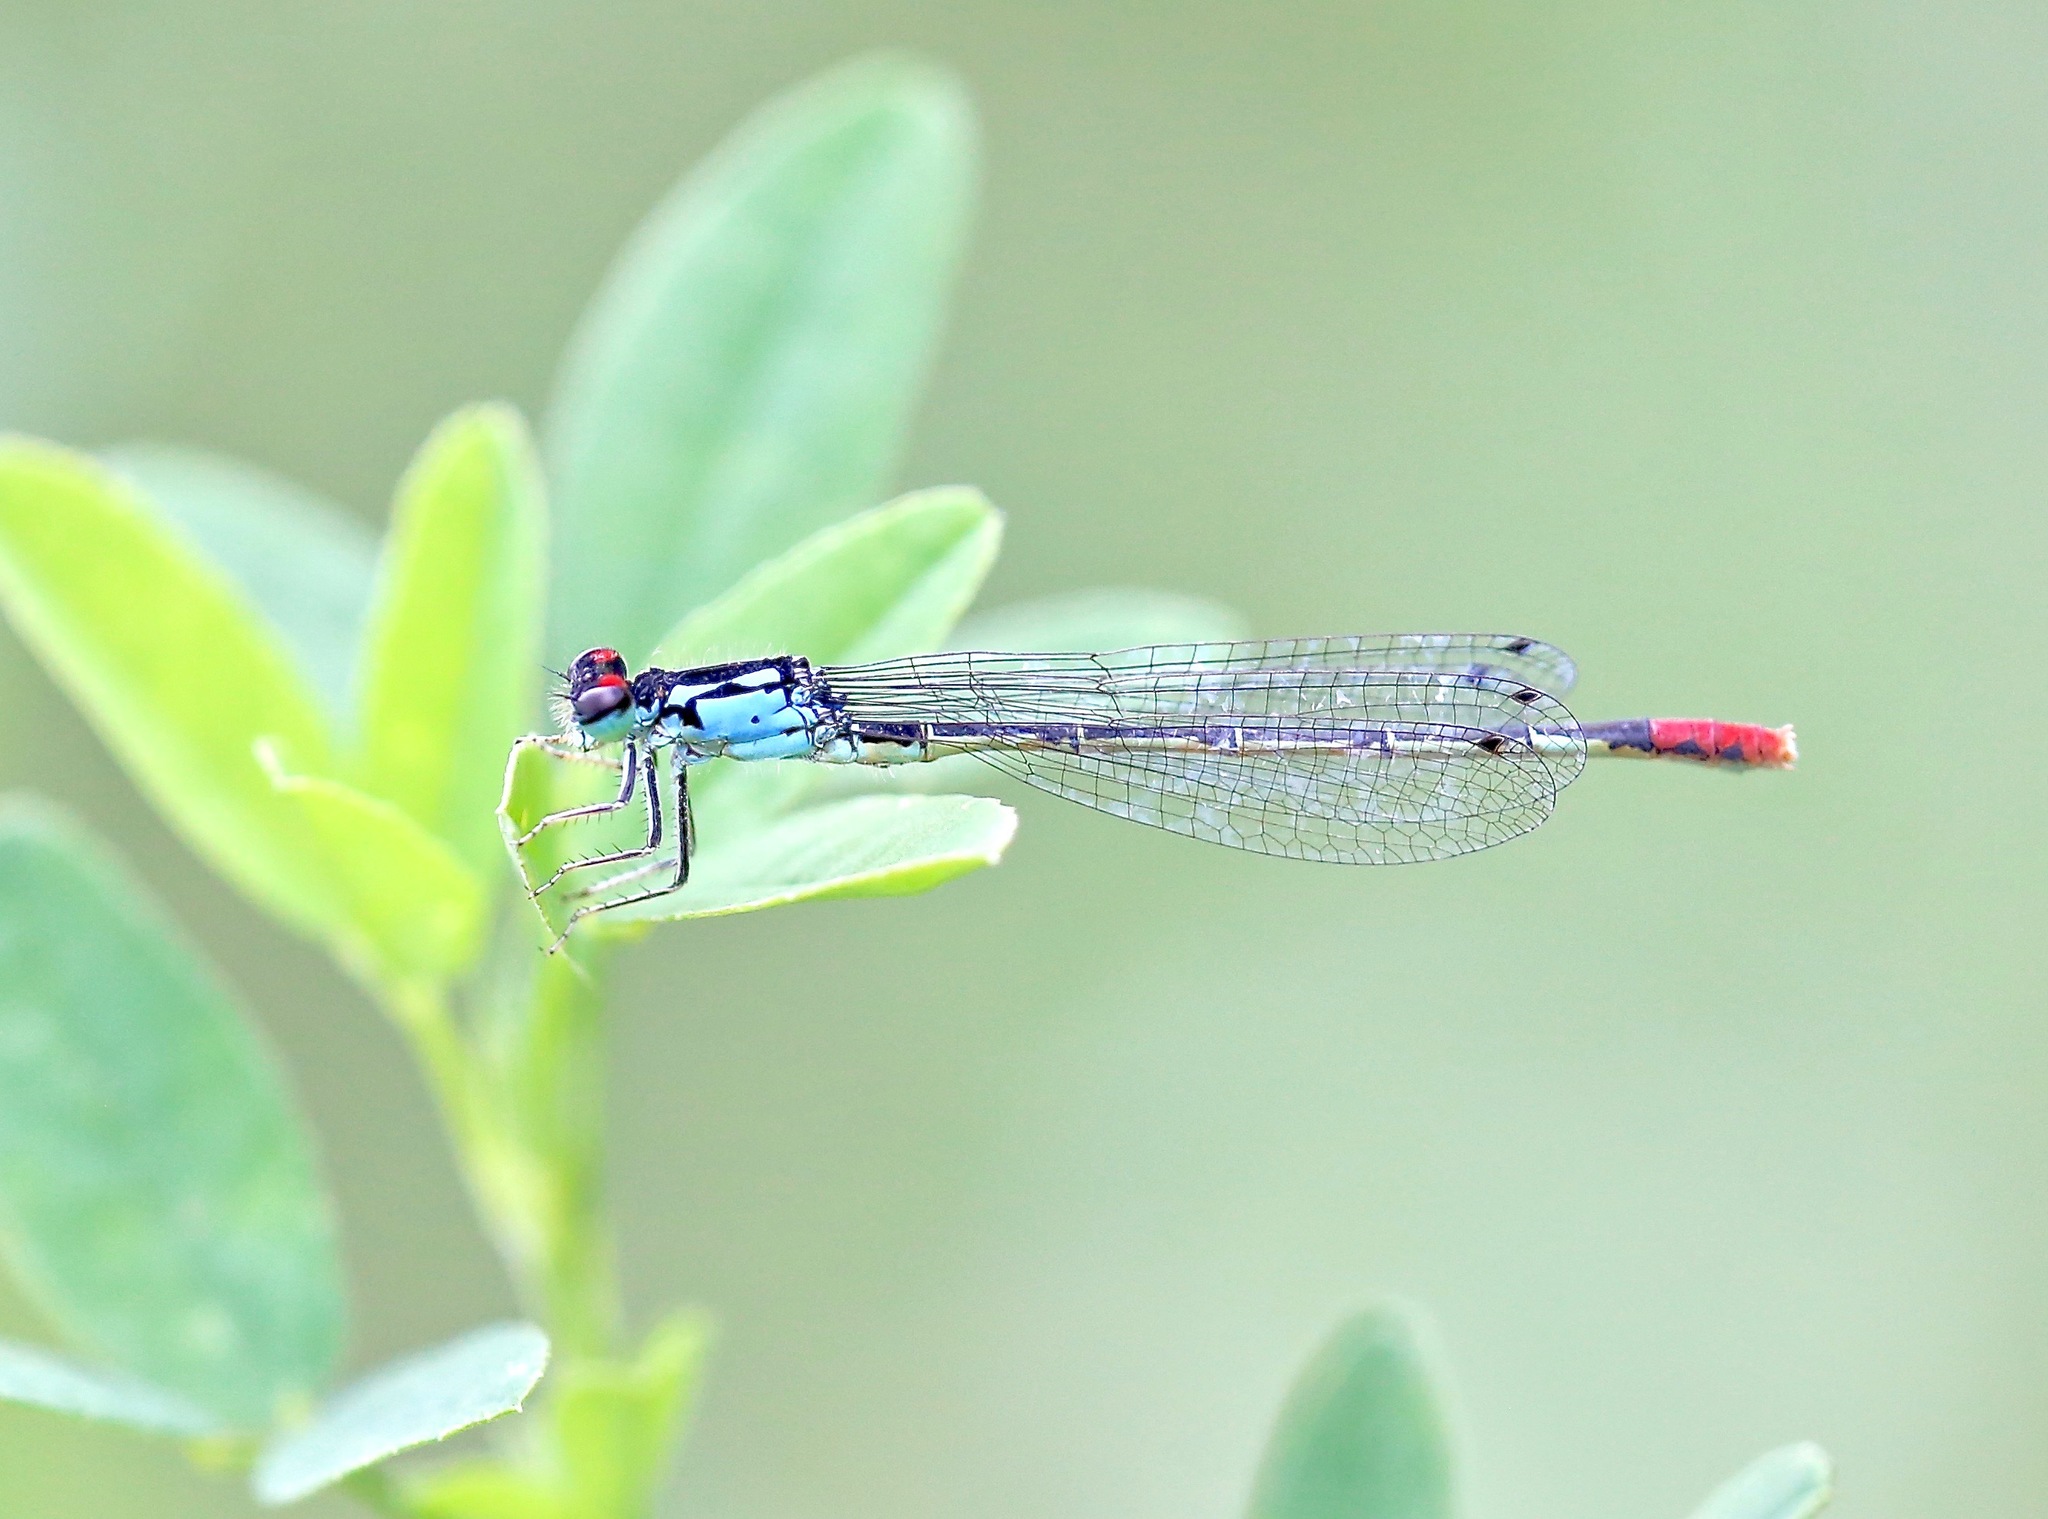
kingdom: Animalia
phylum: Arthropoda
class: Insecta
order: Odonata
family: Coenagrionidae
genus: Hesperagrion
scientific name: Hesperagrion heterodoxum
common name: Painted damsel
